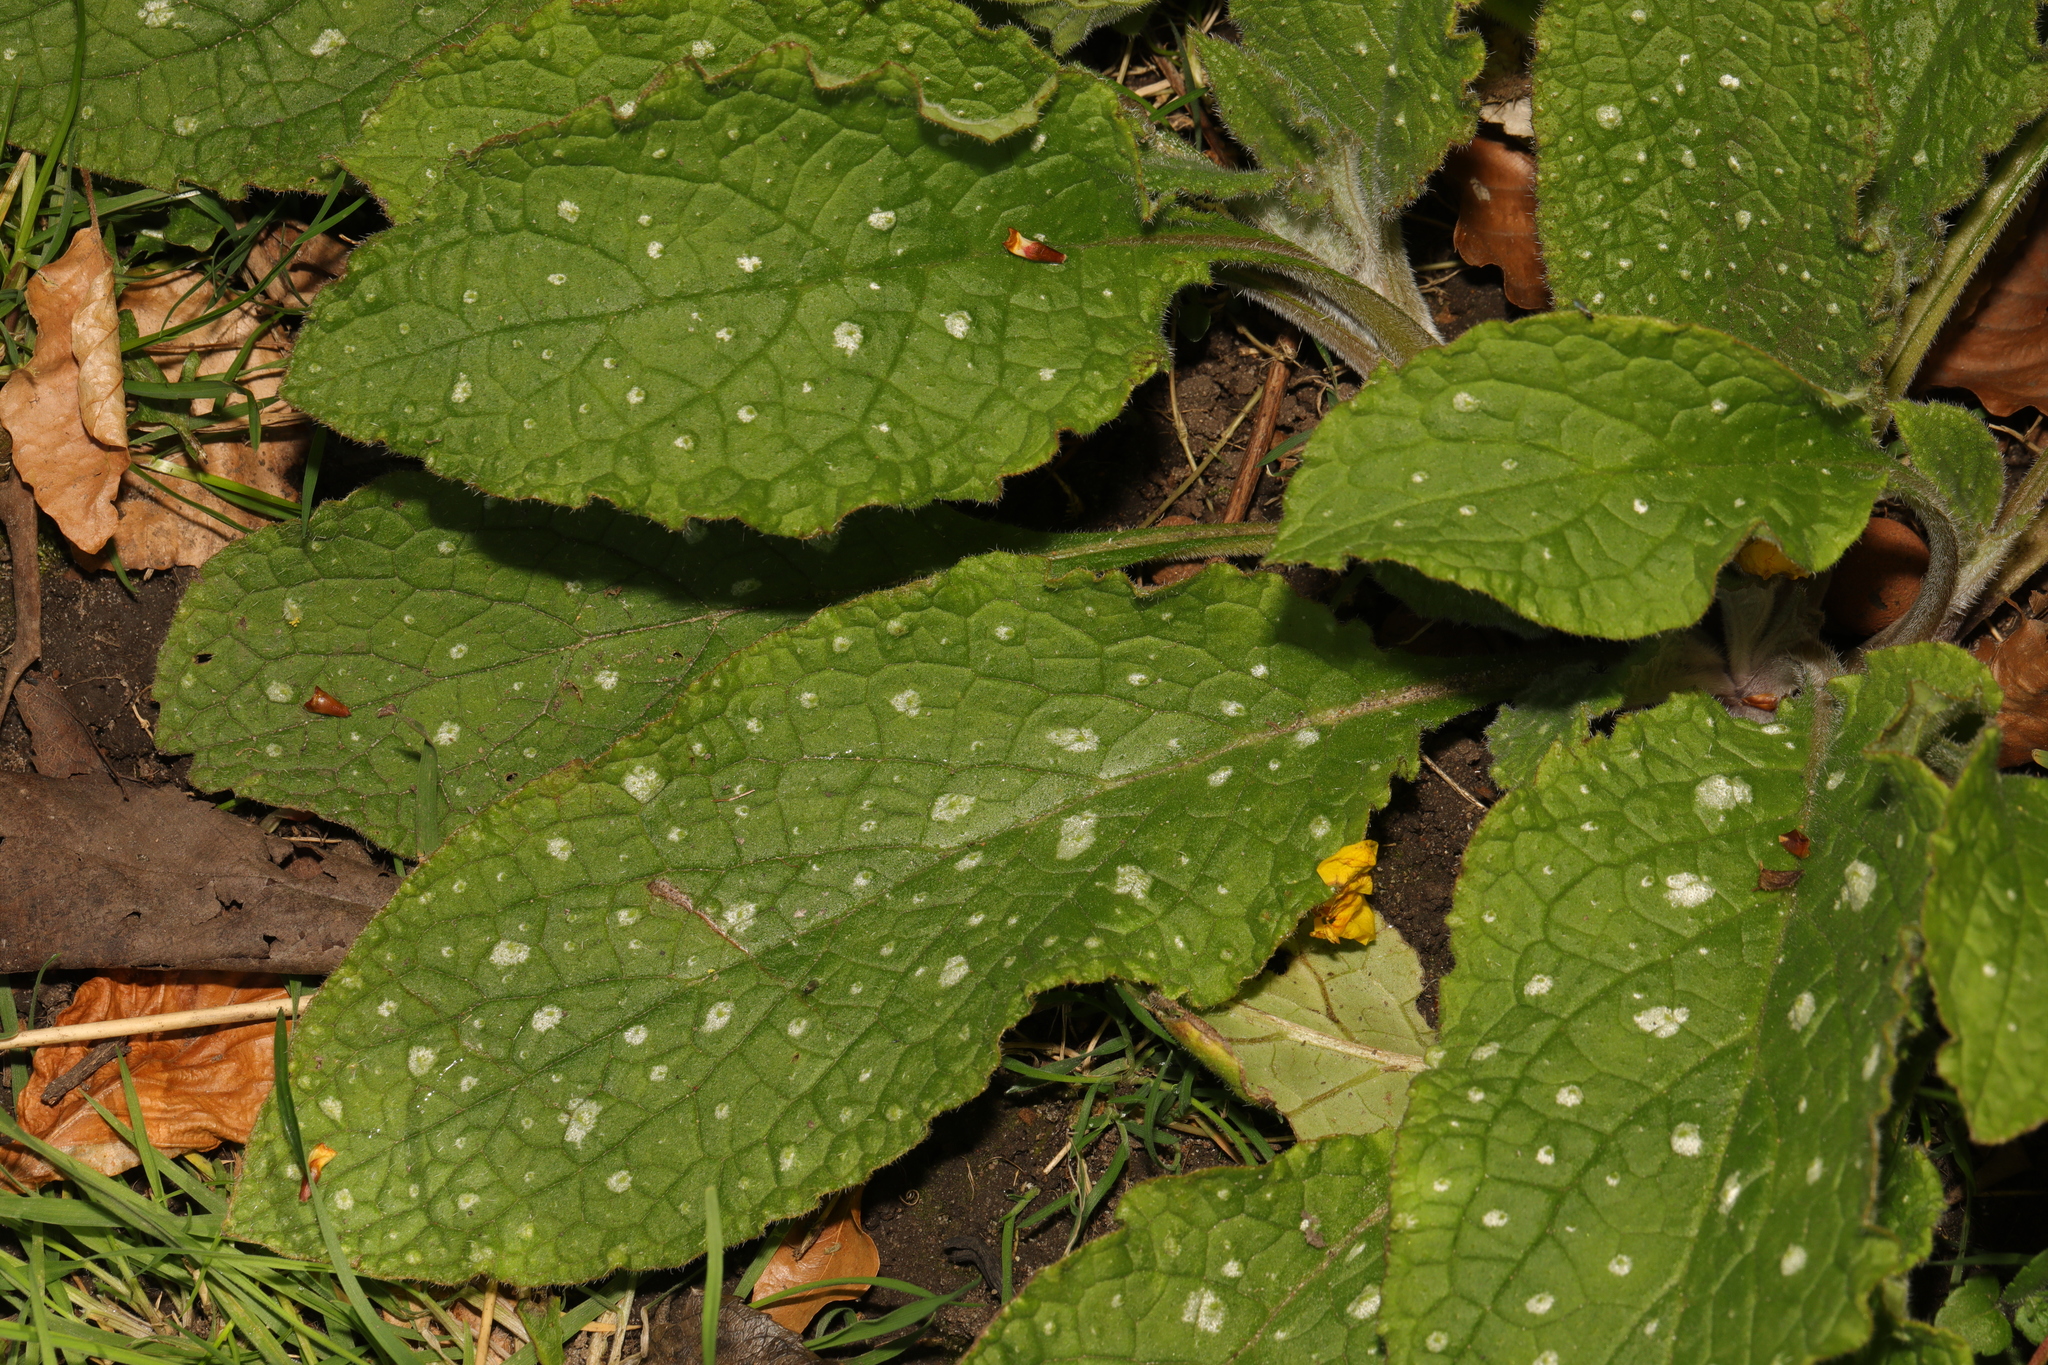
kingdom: Plantae
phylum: Tracheophyta
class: Magnoliopsida
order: Boraginales
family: Boraginaceae
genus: Pentaglottis
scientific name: Pentaglottis sempervirens
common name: Green alkanet
